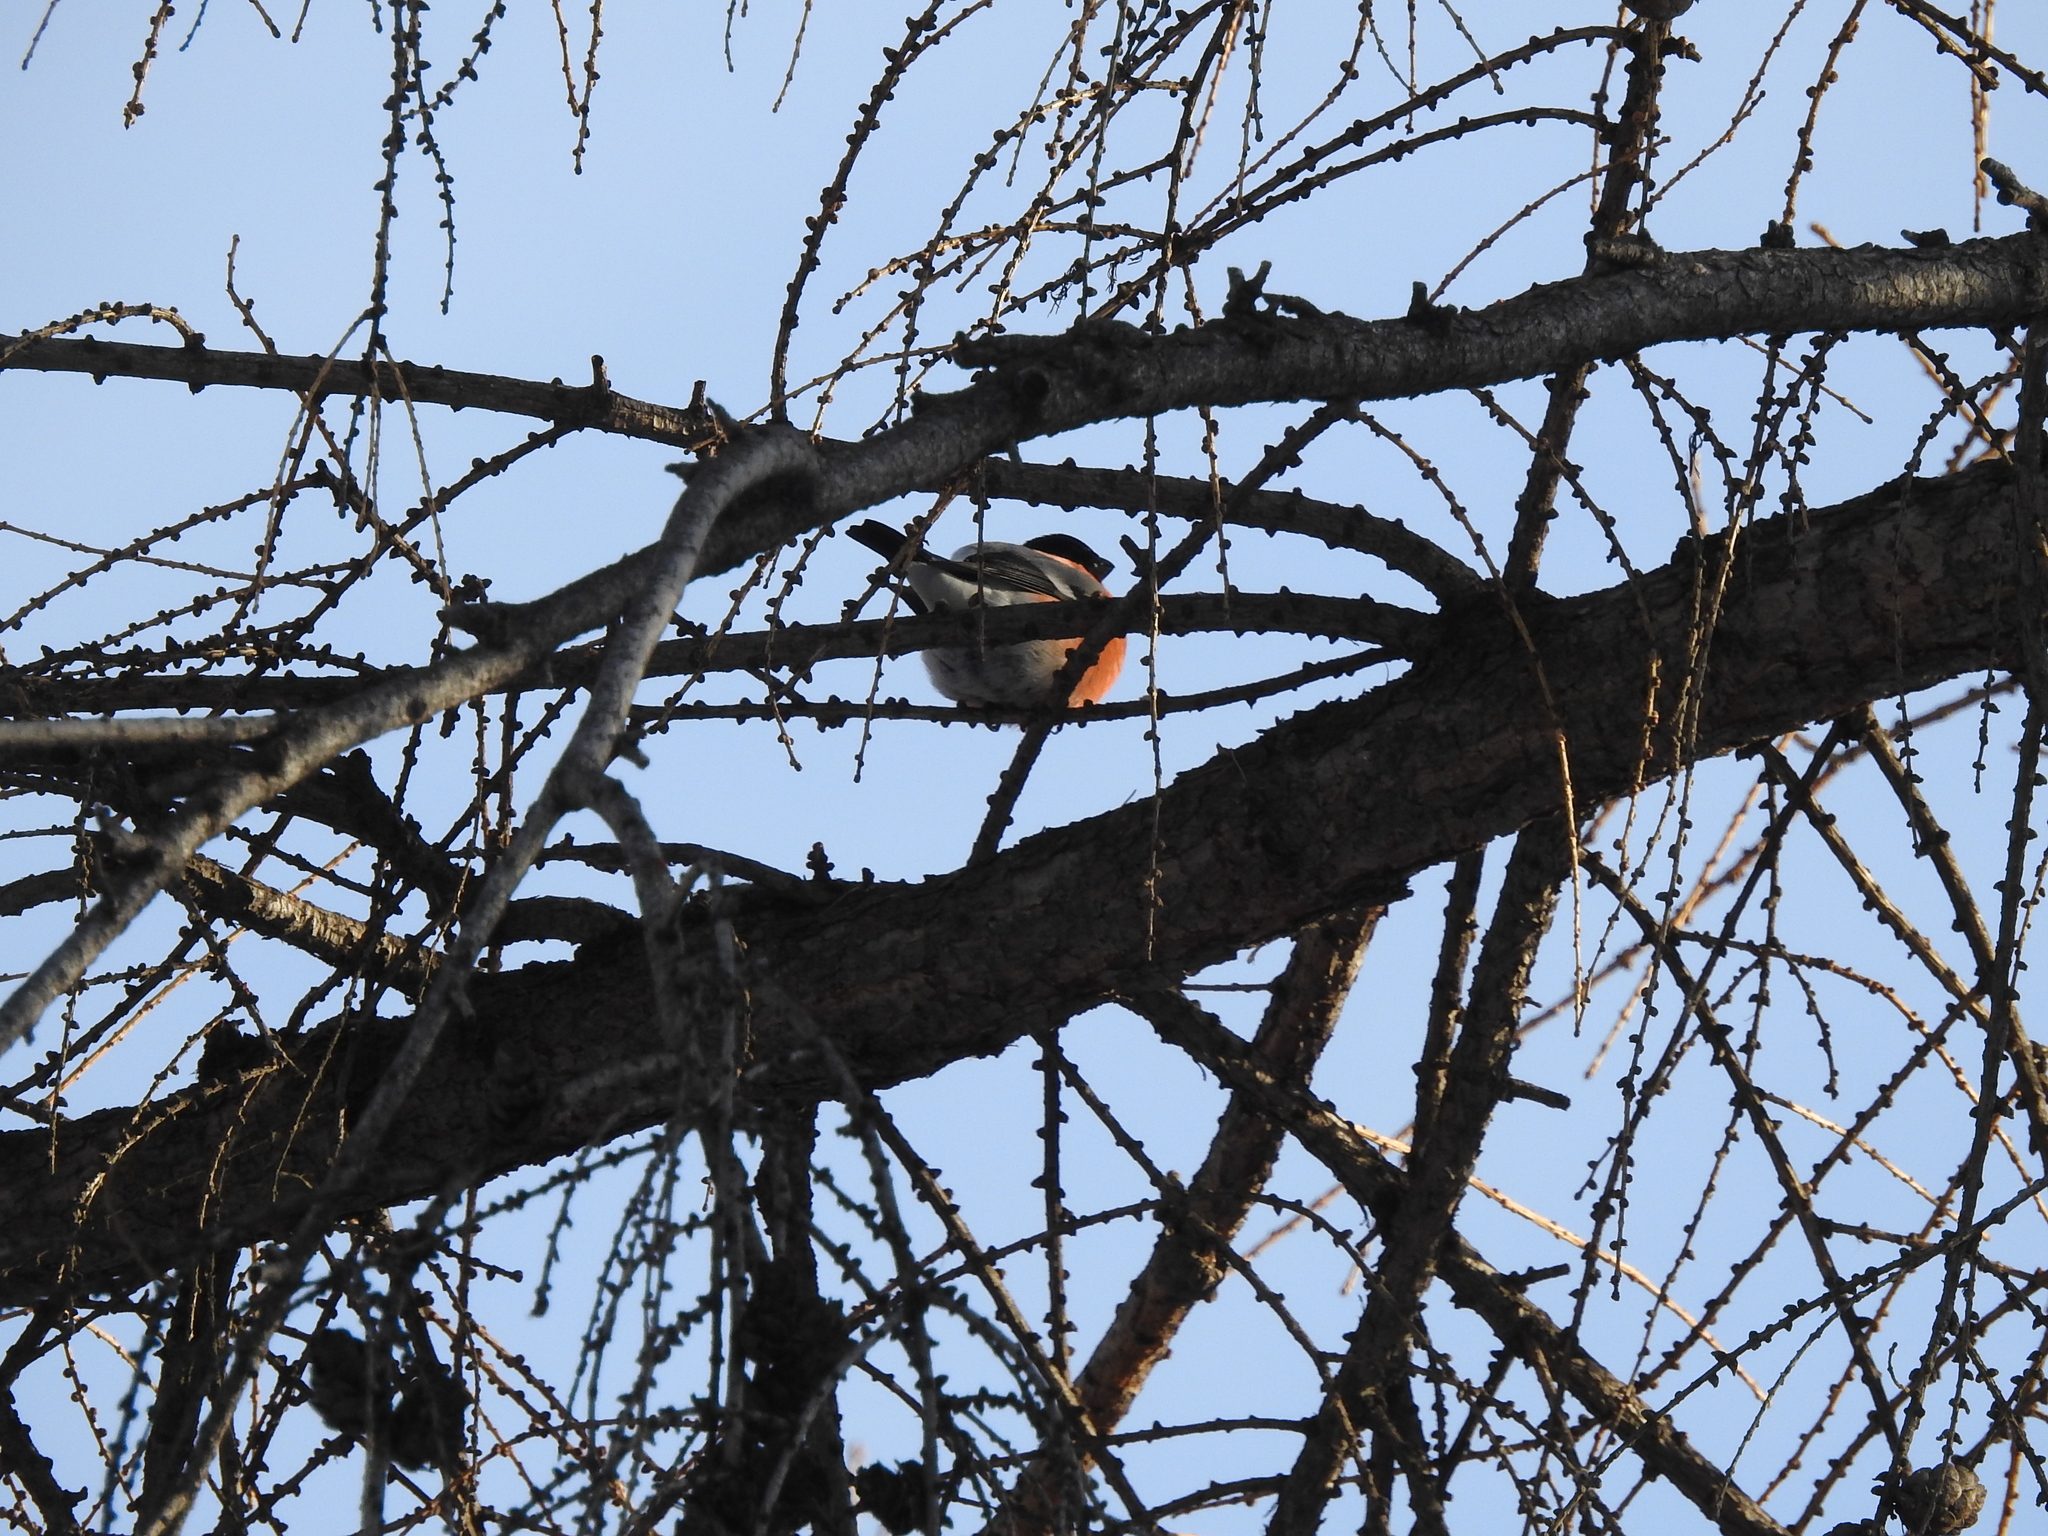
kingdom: Animalia
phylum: Chordata
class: Aves
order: Passeriformes
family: Fringillidae
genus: Pyrrhula
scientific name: Pyrrhula pyrrhula
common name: Eurasian bullfinch
